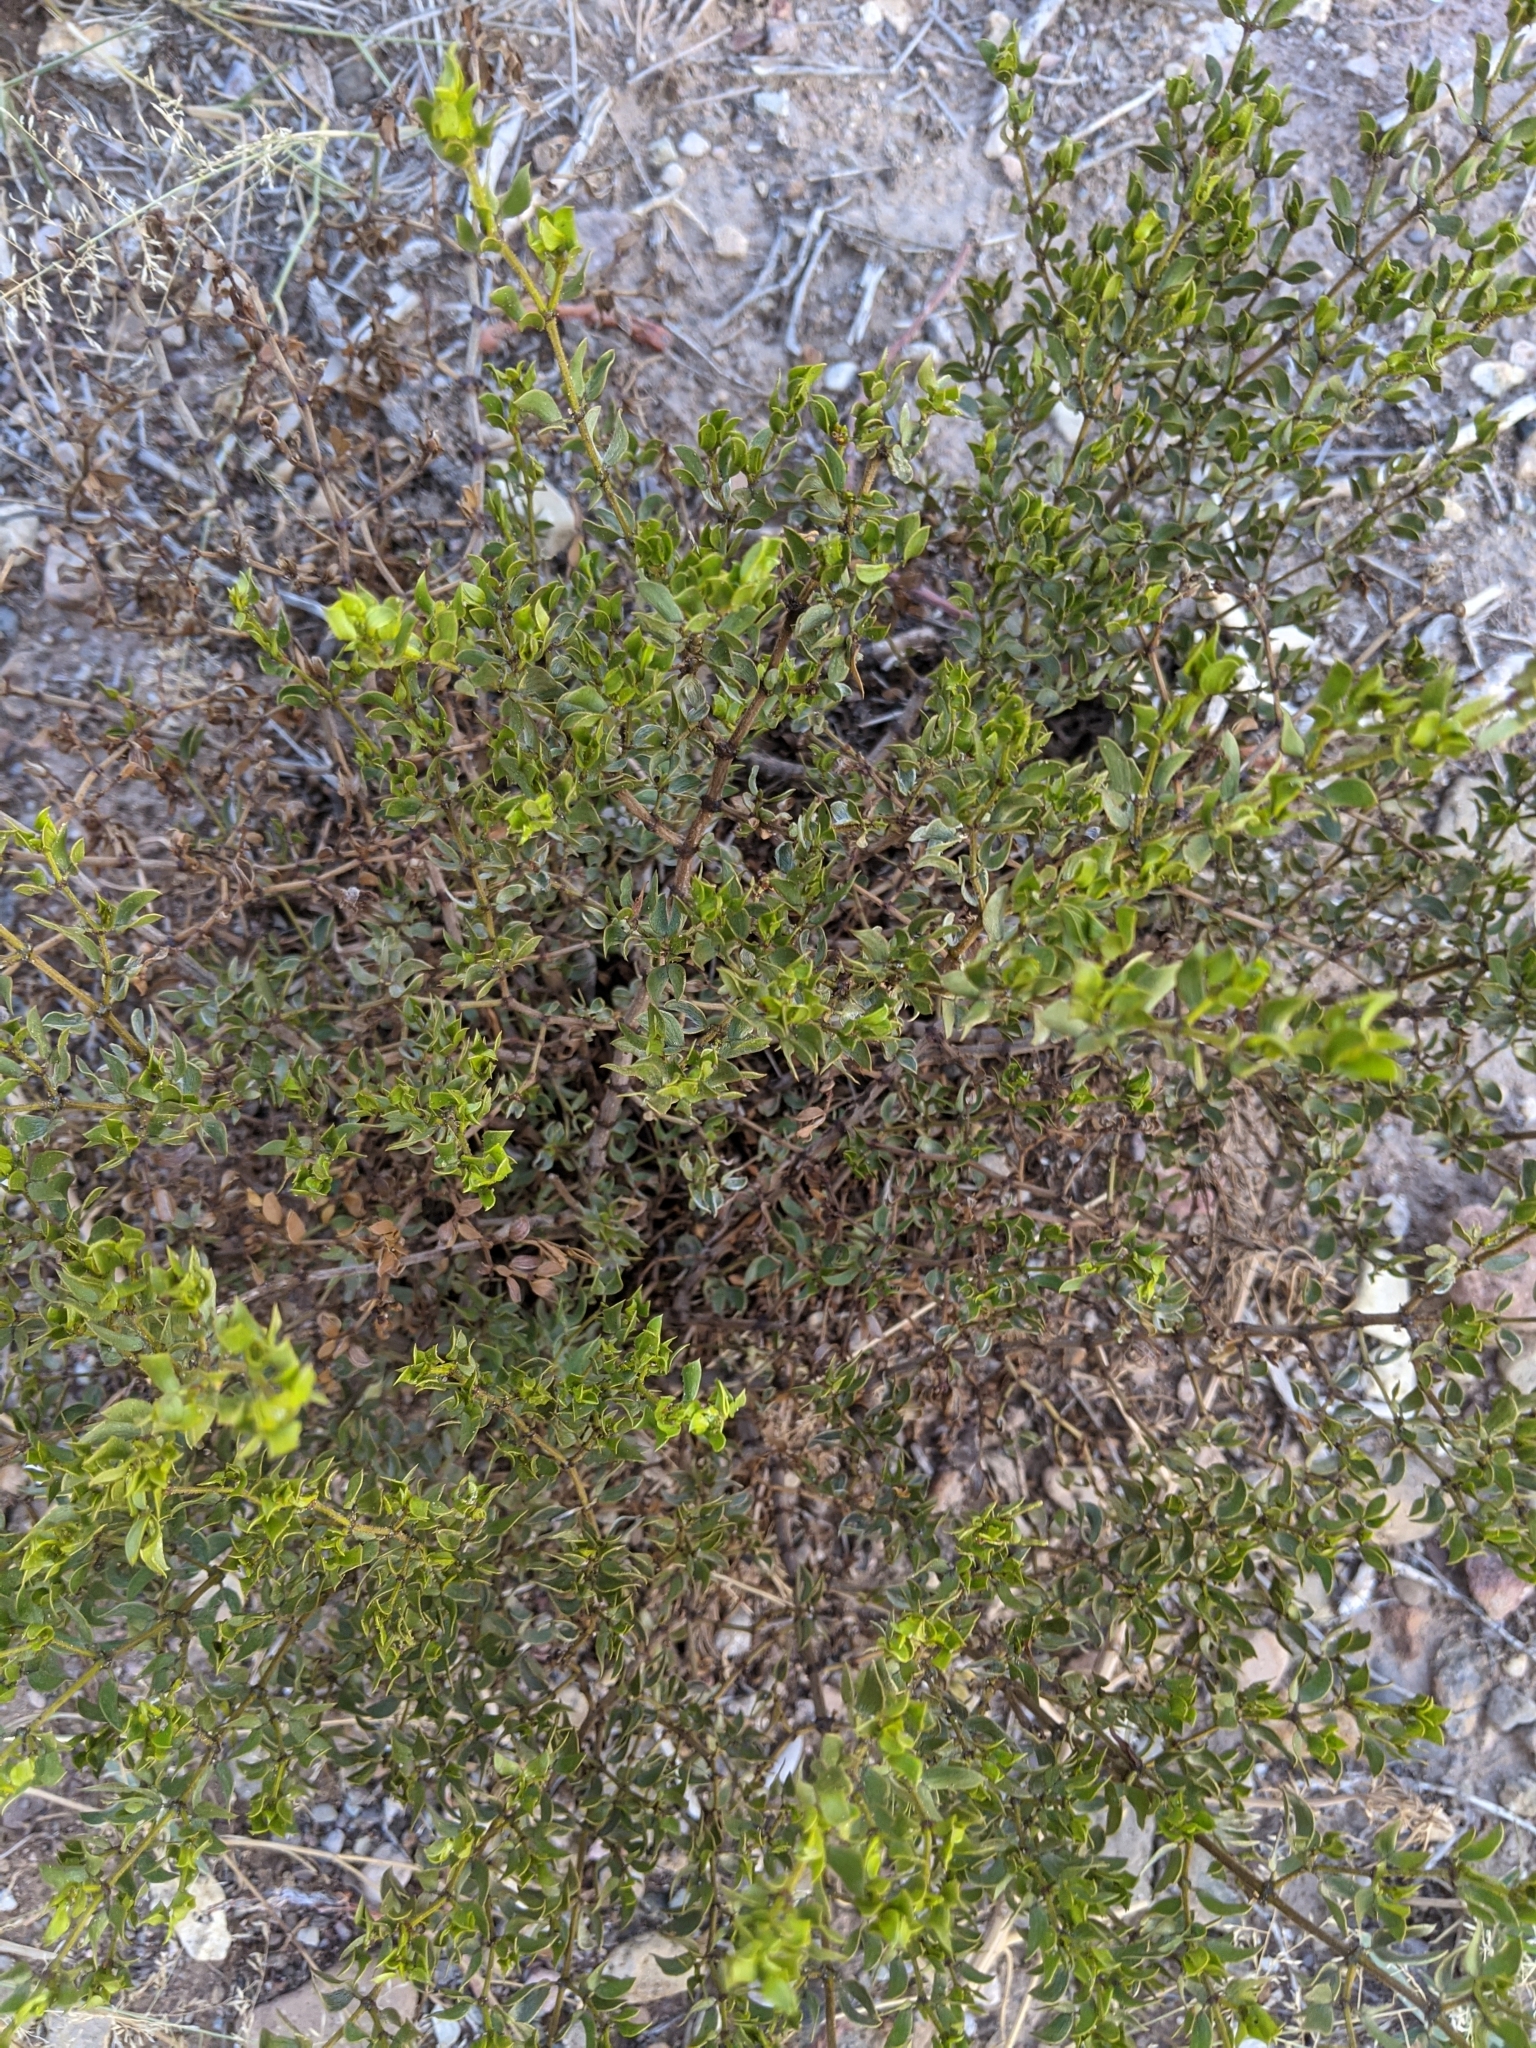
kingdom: Plantae
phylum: Tracheophyta
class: Magnoliopsida
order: Zygophyllales
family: Zygophyllaceae
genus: Larrea
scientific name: Larrea tridentata
